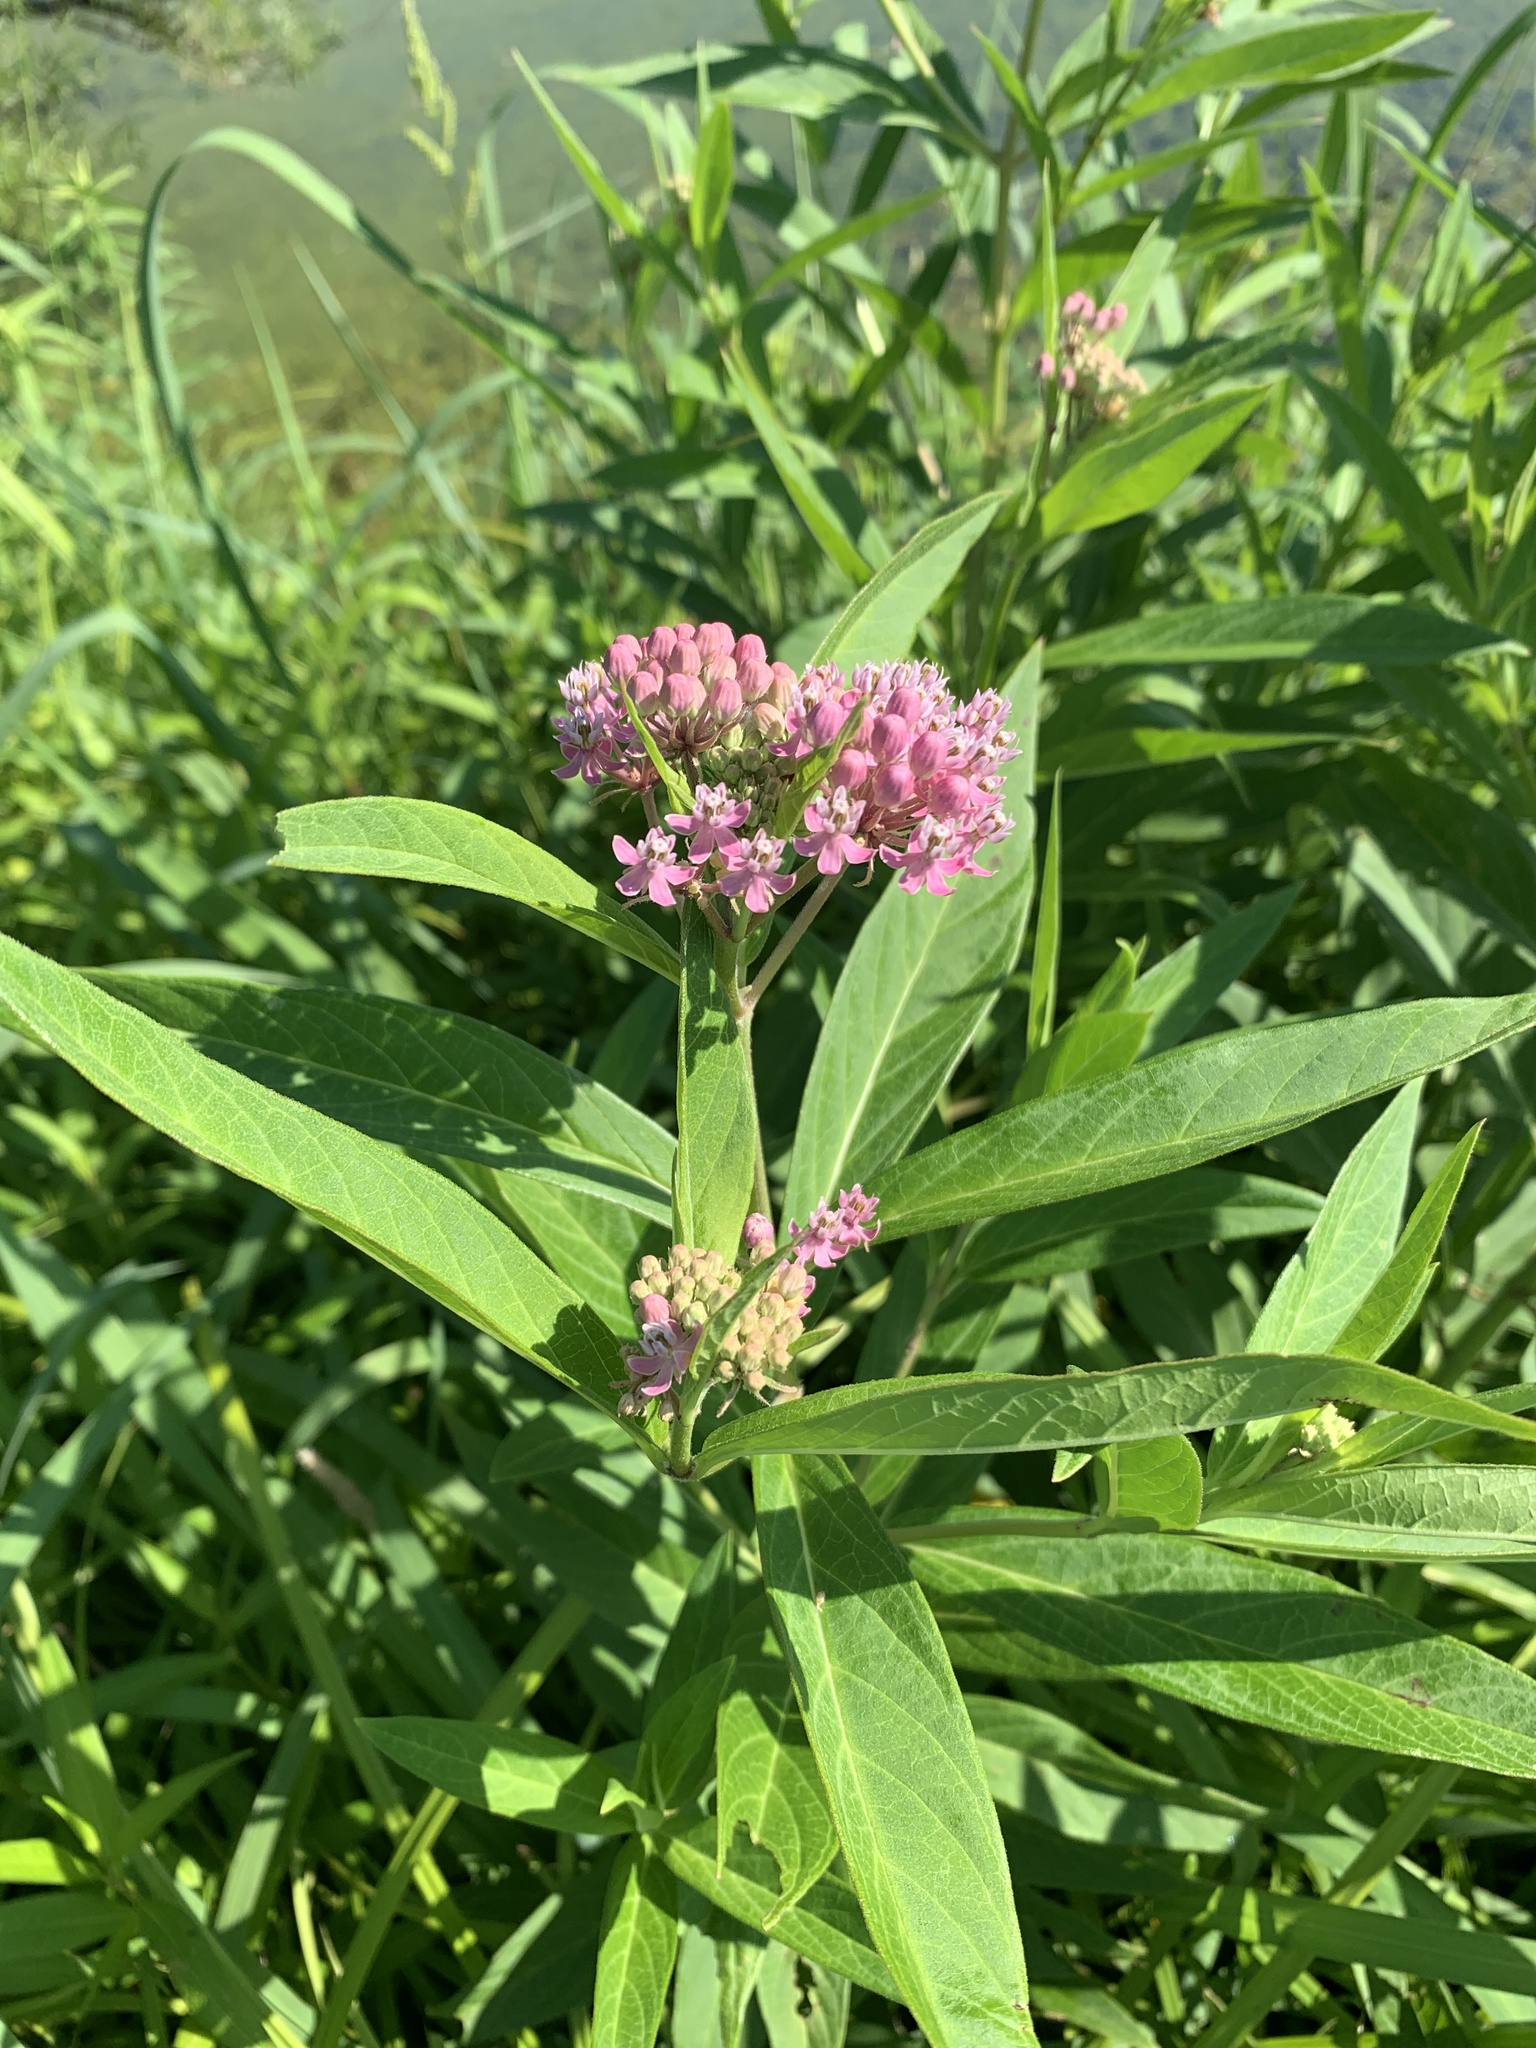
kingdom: Plantae
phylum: Tracheophyta
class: Magnoliopsida
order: Gentianales
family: Apocynaceae
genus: Asclepias
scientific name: Asclepias incarnata
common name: Swamp milkweed
